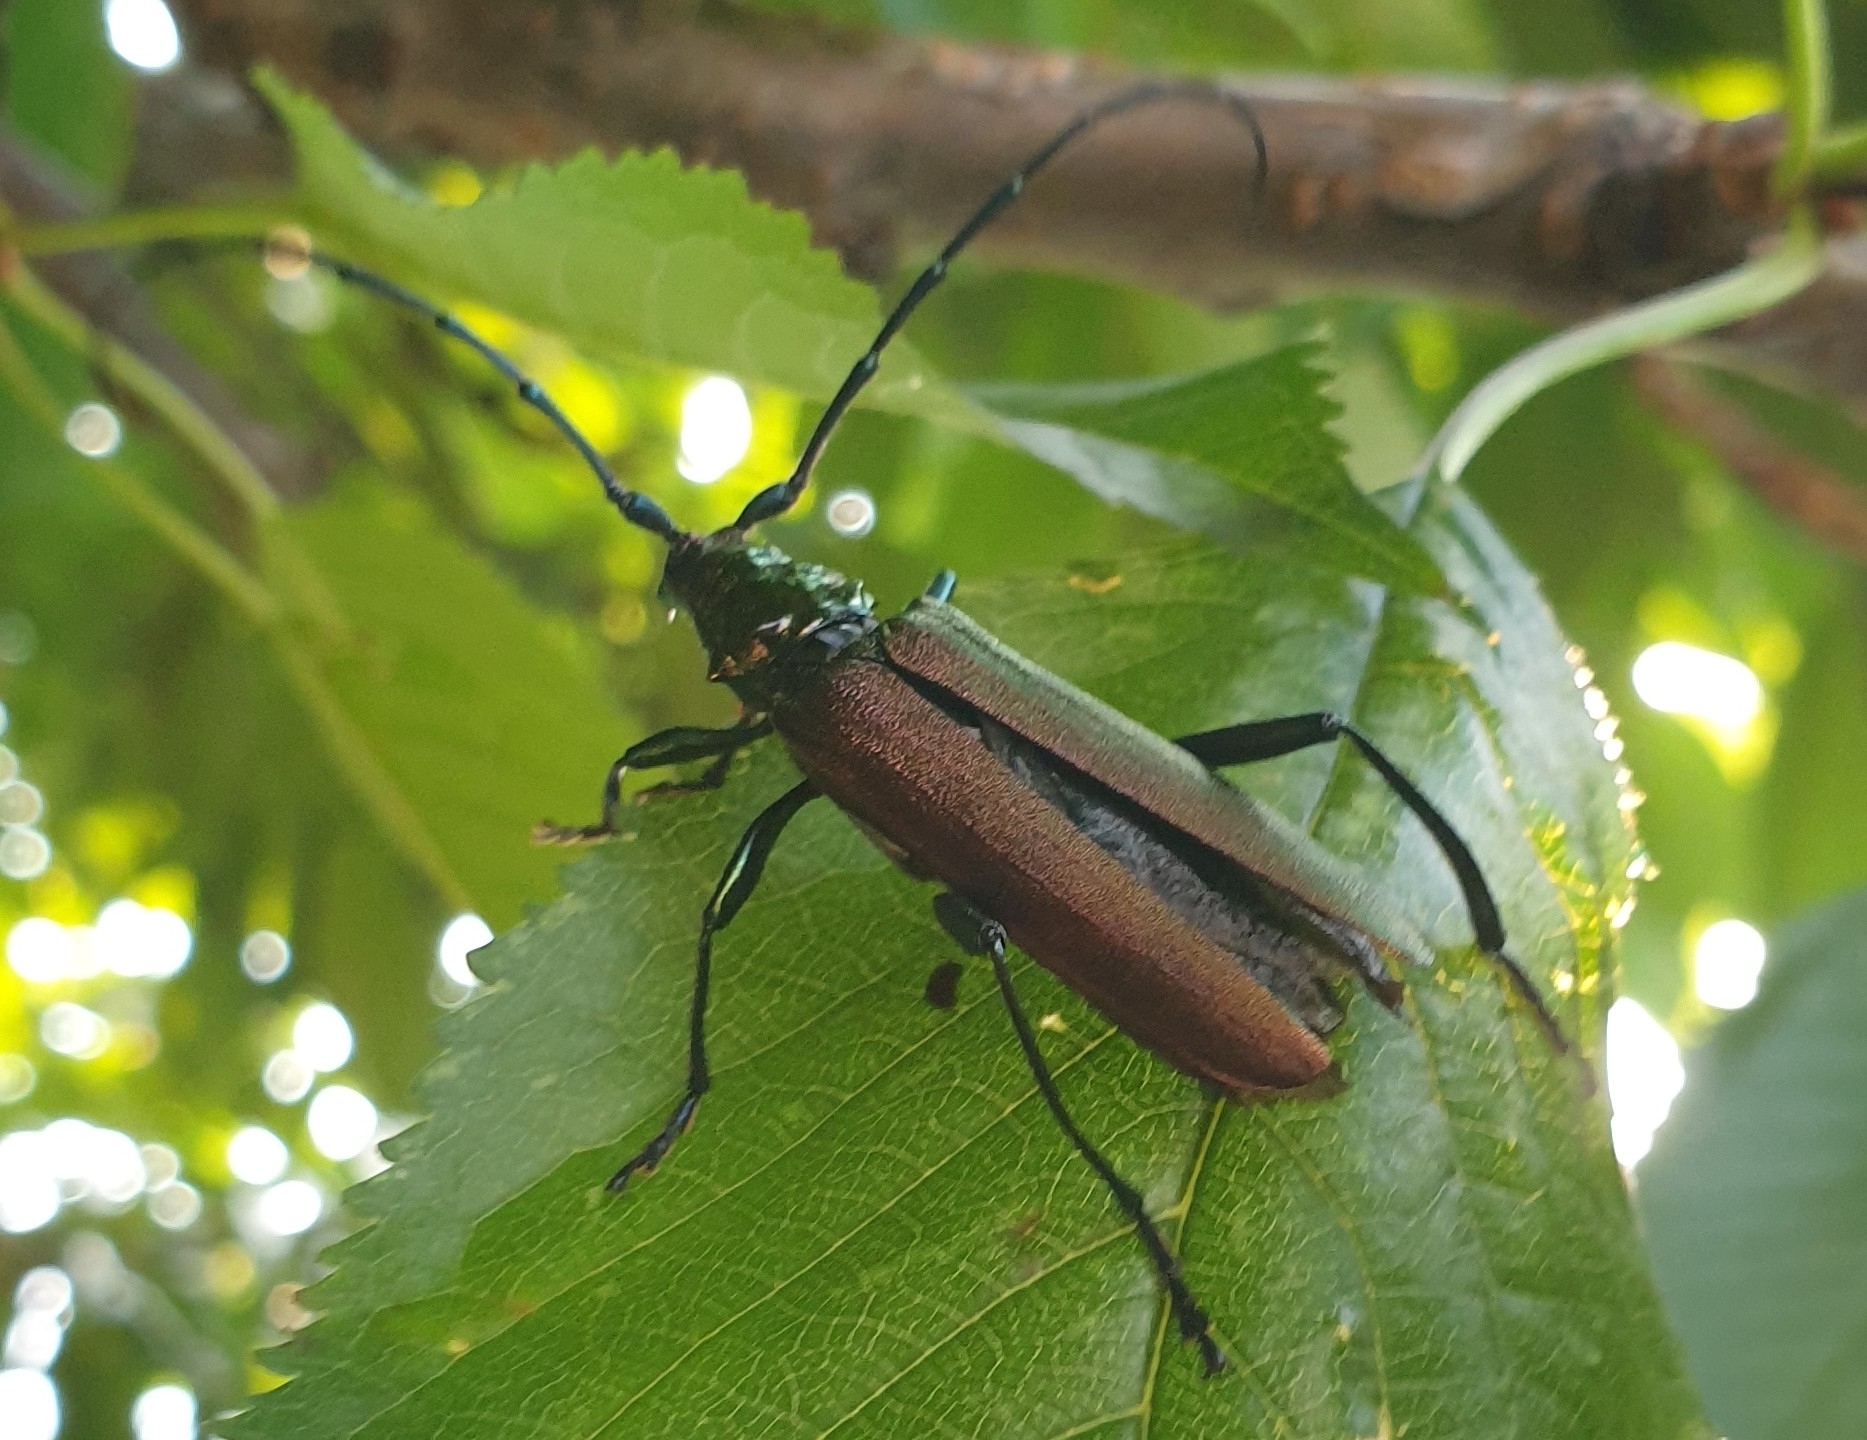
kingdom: Animalia
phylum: Arthropoda
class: Insecta
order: Coleoptera
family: Cerambycidae
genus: Aromia
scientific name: Aromia moschata
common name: Musk beetle
